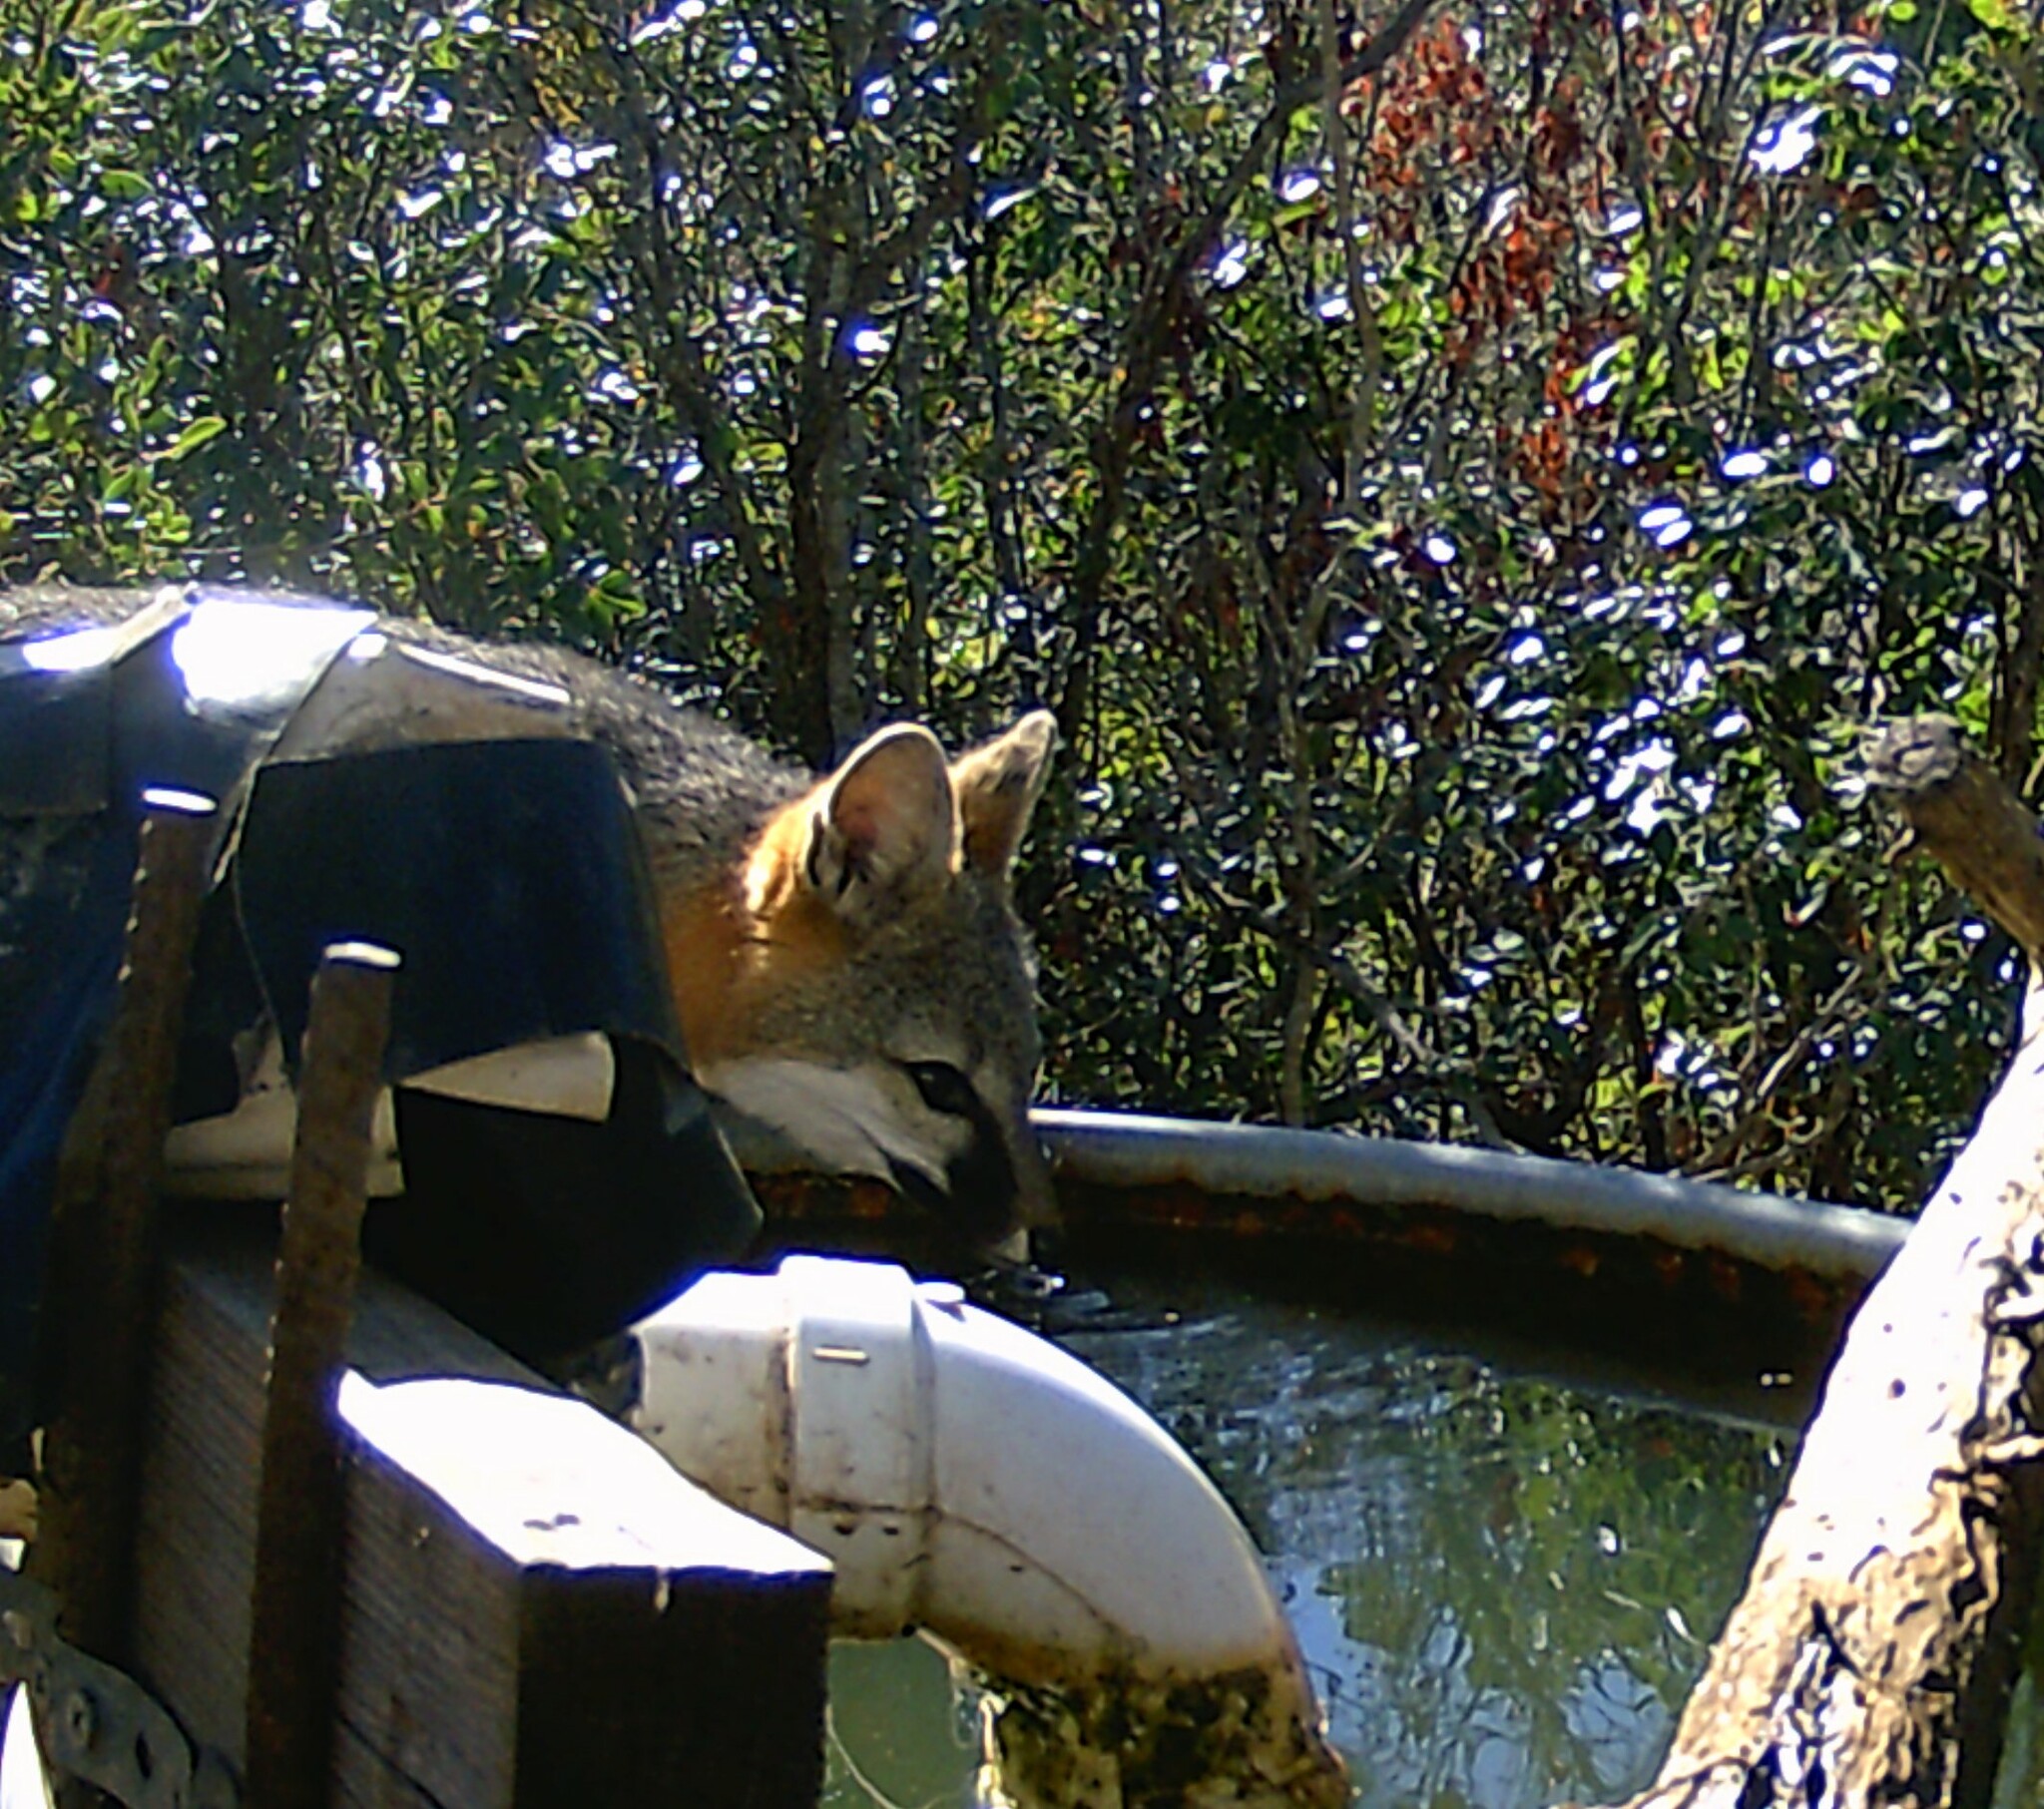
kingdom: Animalia
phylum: Chordata
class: Mammalia
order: Carnivora
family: Canidae
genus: Urocyon
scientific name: Urocyon cinereoargenteus
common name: Gray fox
